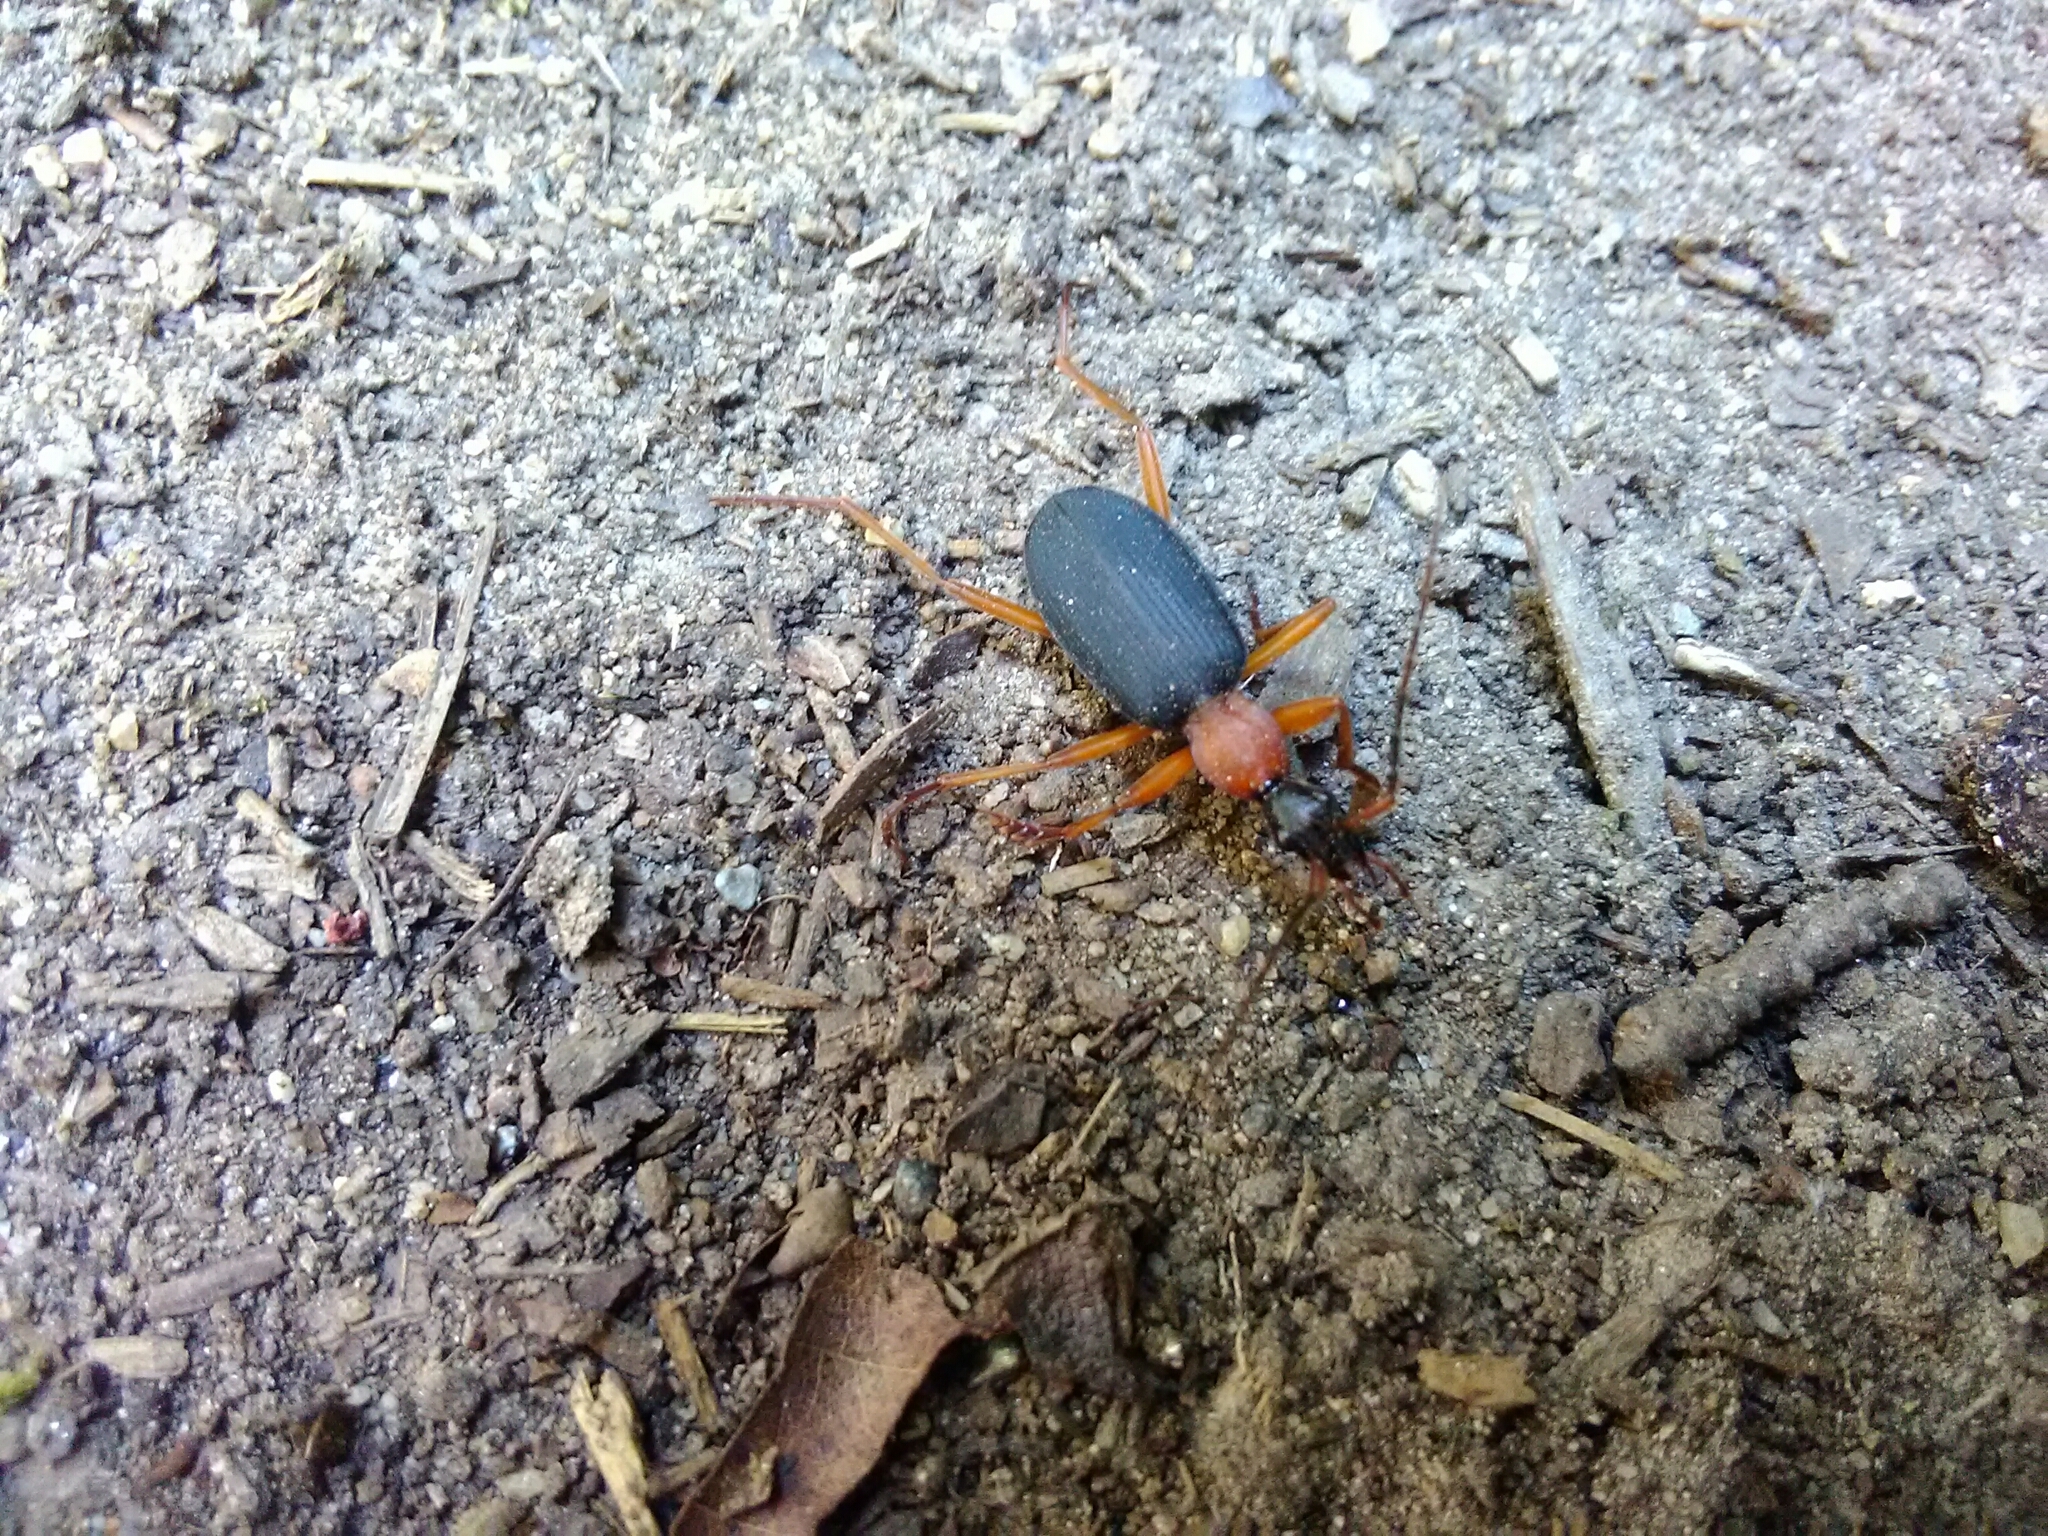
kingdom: Animalia
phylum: Arthropoda
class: Insecta
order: Coleoptera
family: Carabidae
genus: Galerita
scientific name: Galerita bicolor
